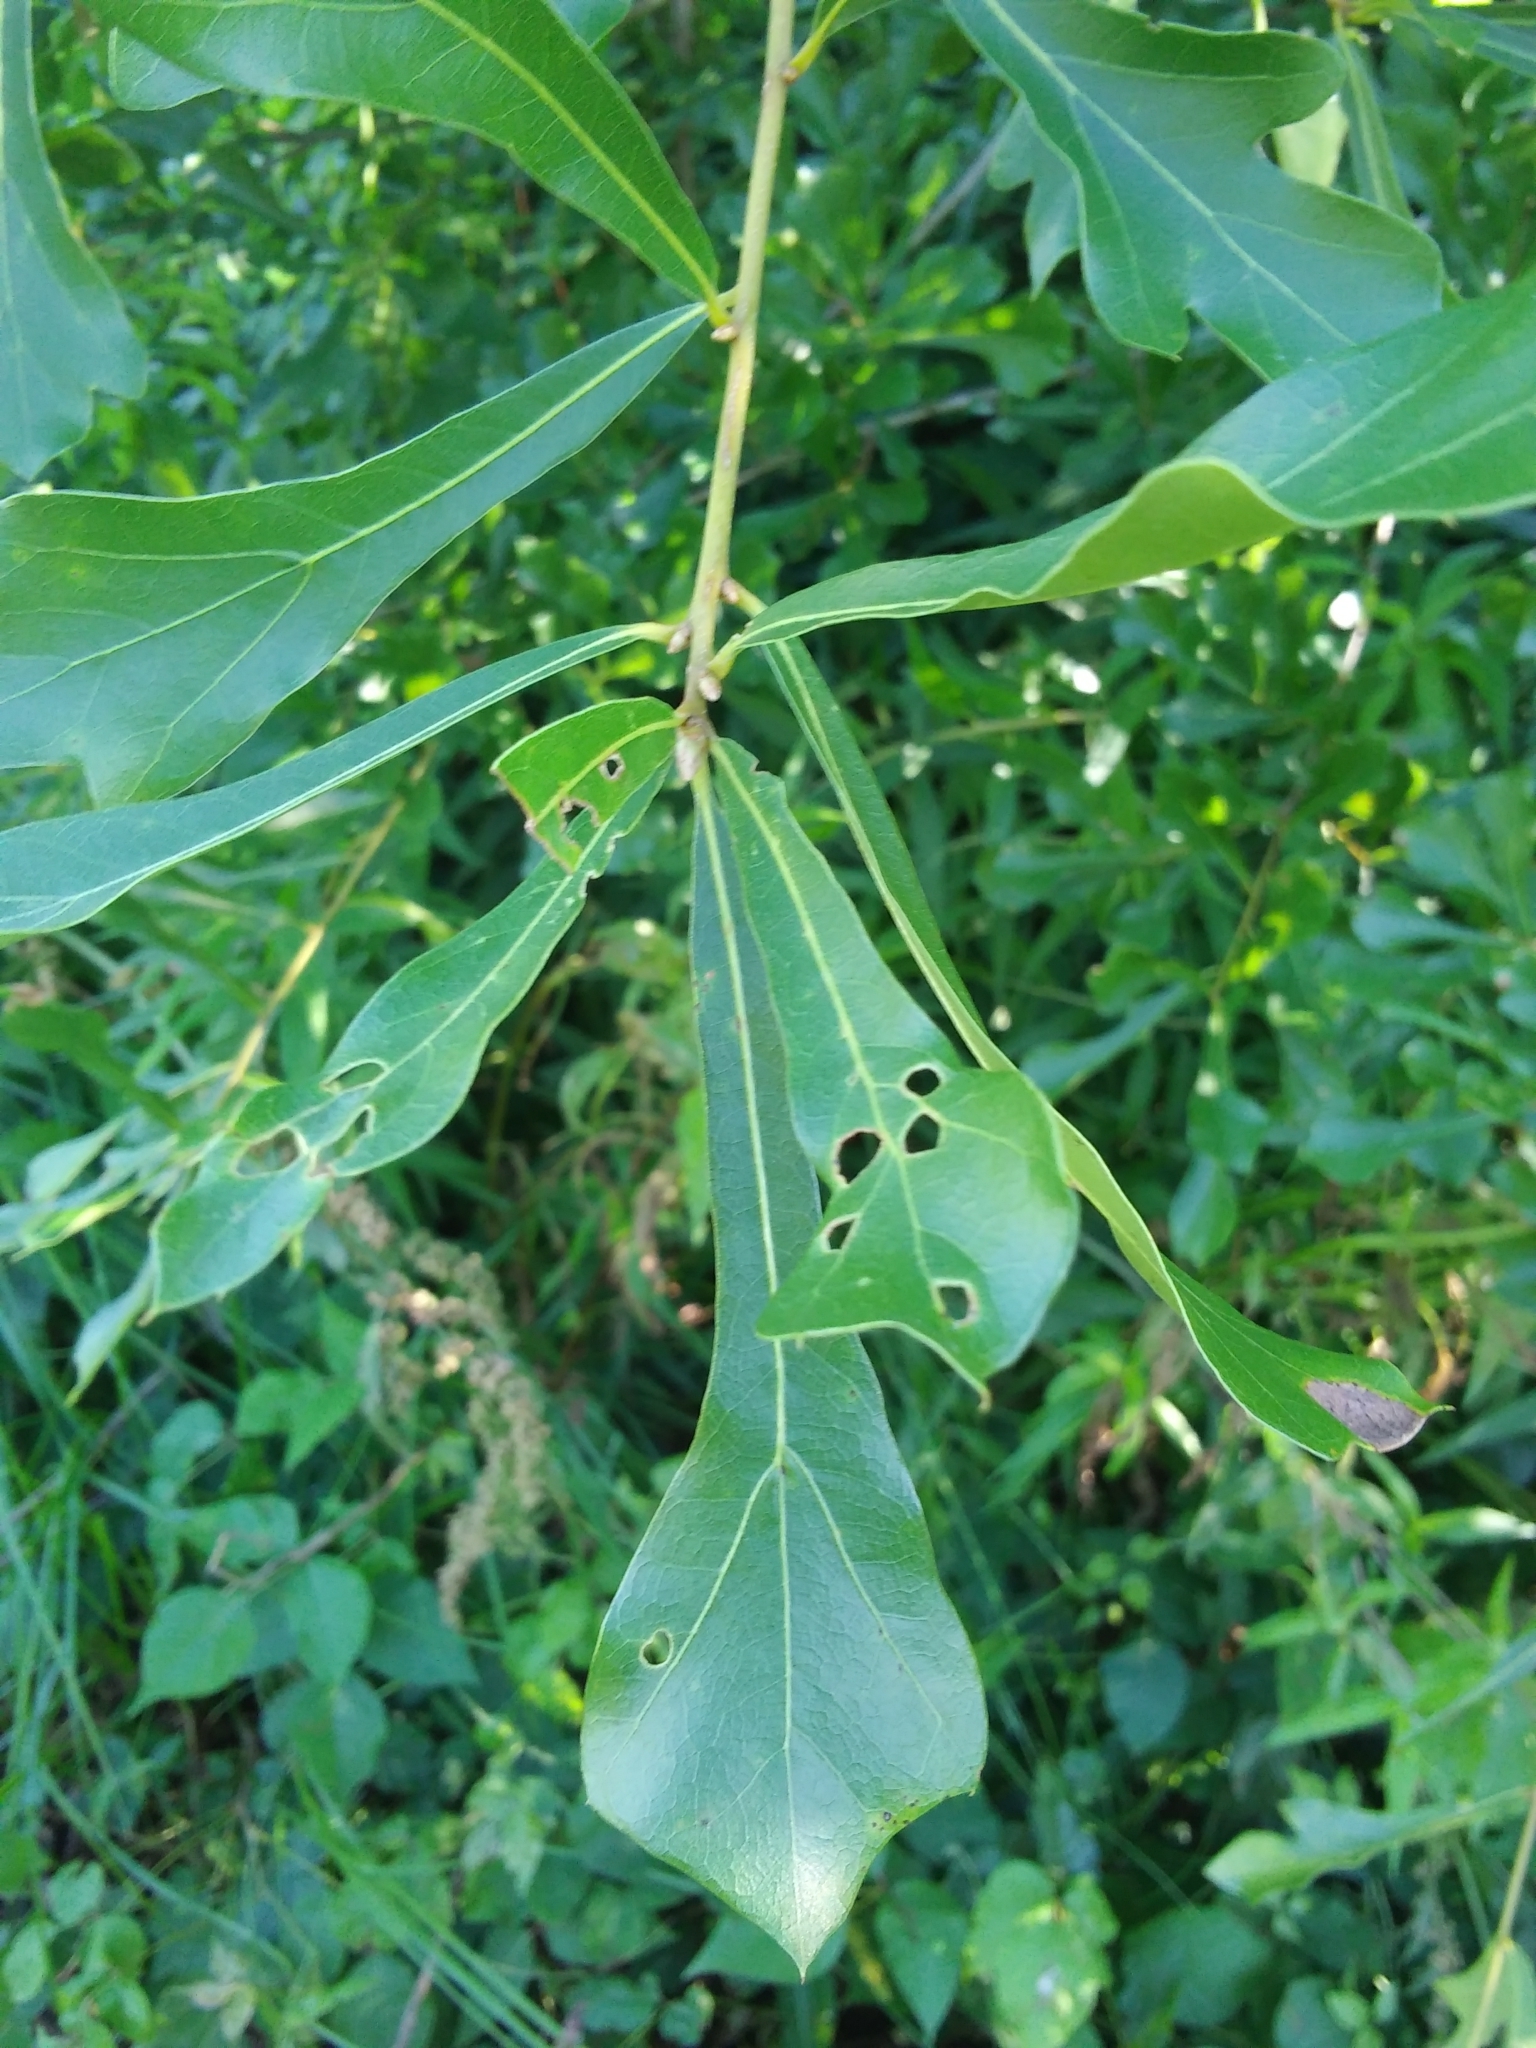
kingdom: Plantae
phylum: Tracheophyta
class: Magnoliopsida
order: Fagales
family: Fagaceae
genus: Quercus
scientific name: Quercus nigra
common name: Water oak
